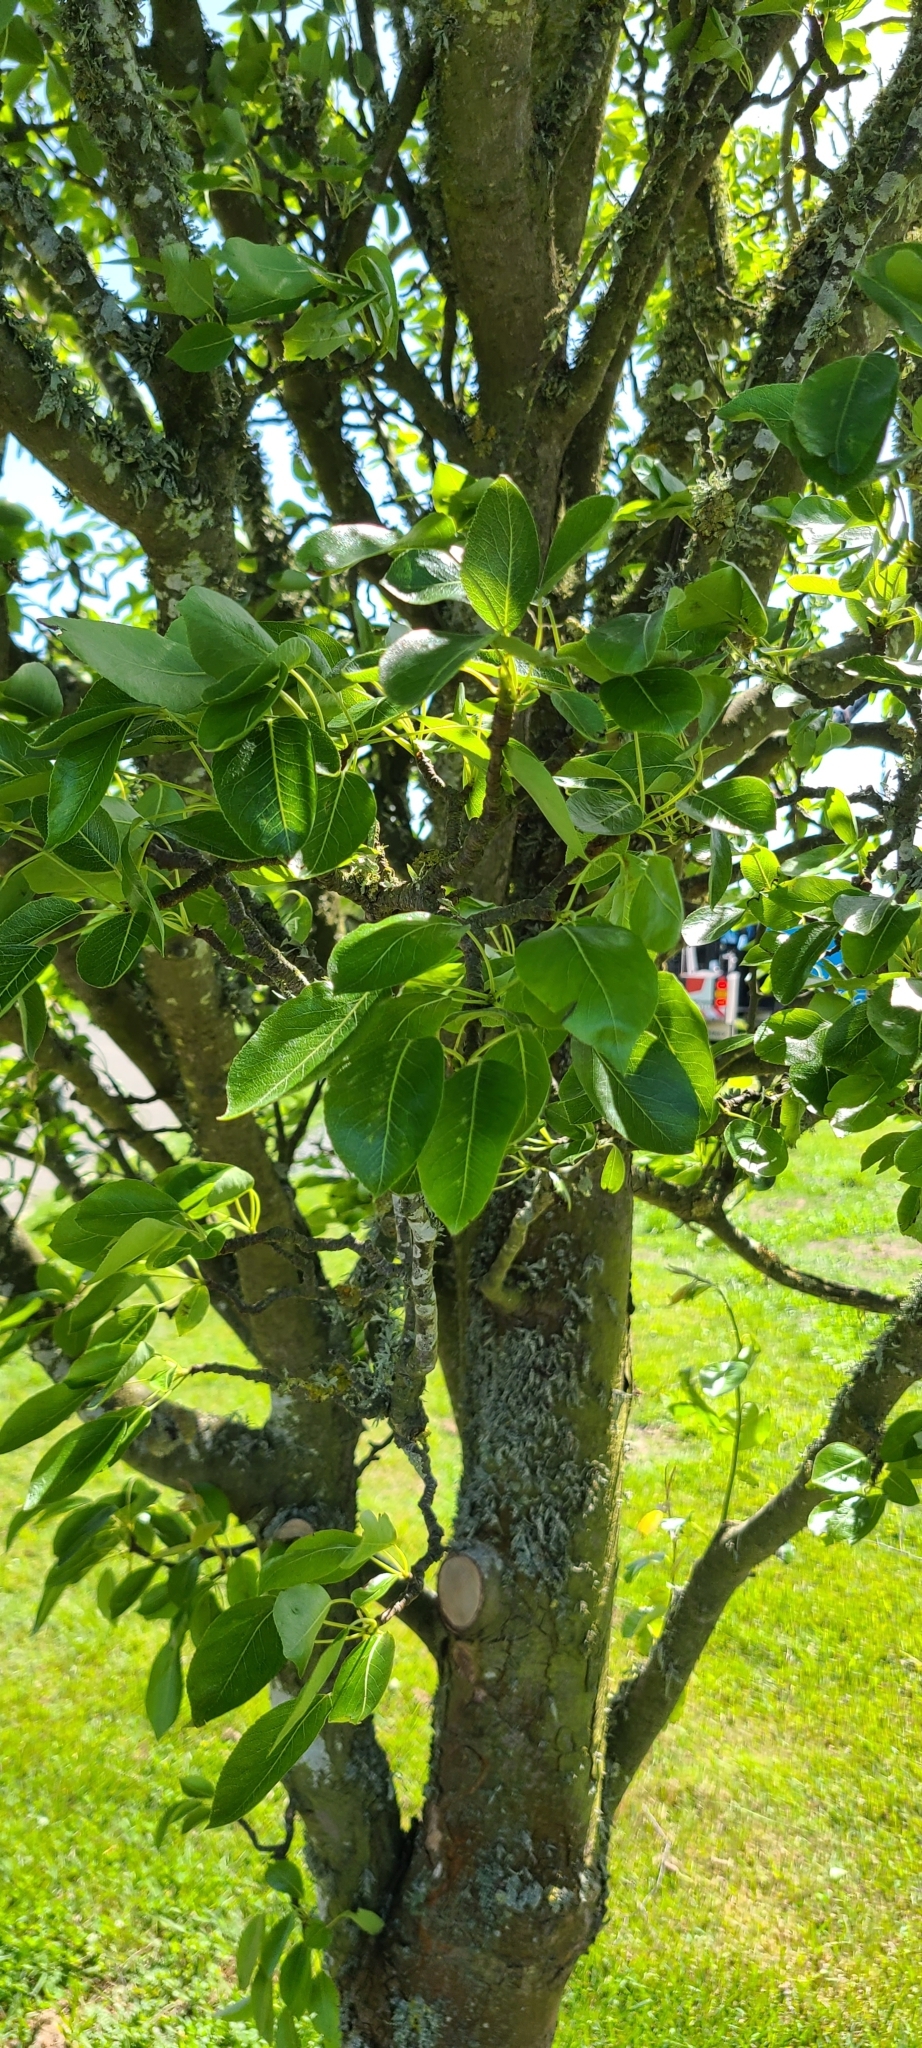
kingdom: Plantae
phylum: Tracheophyta
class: Magnoliopsida
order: Rosales
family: Rosaceae
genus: Pyrus
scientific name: Pyrus communis
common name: Pear
